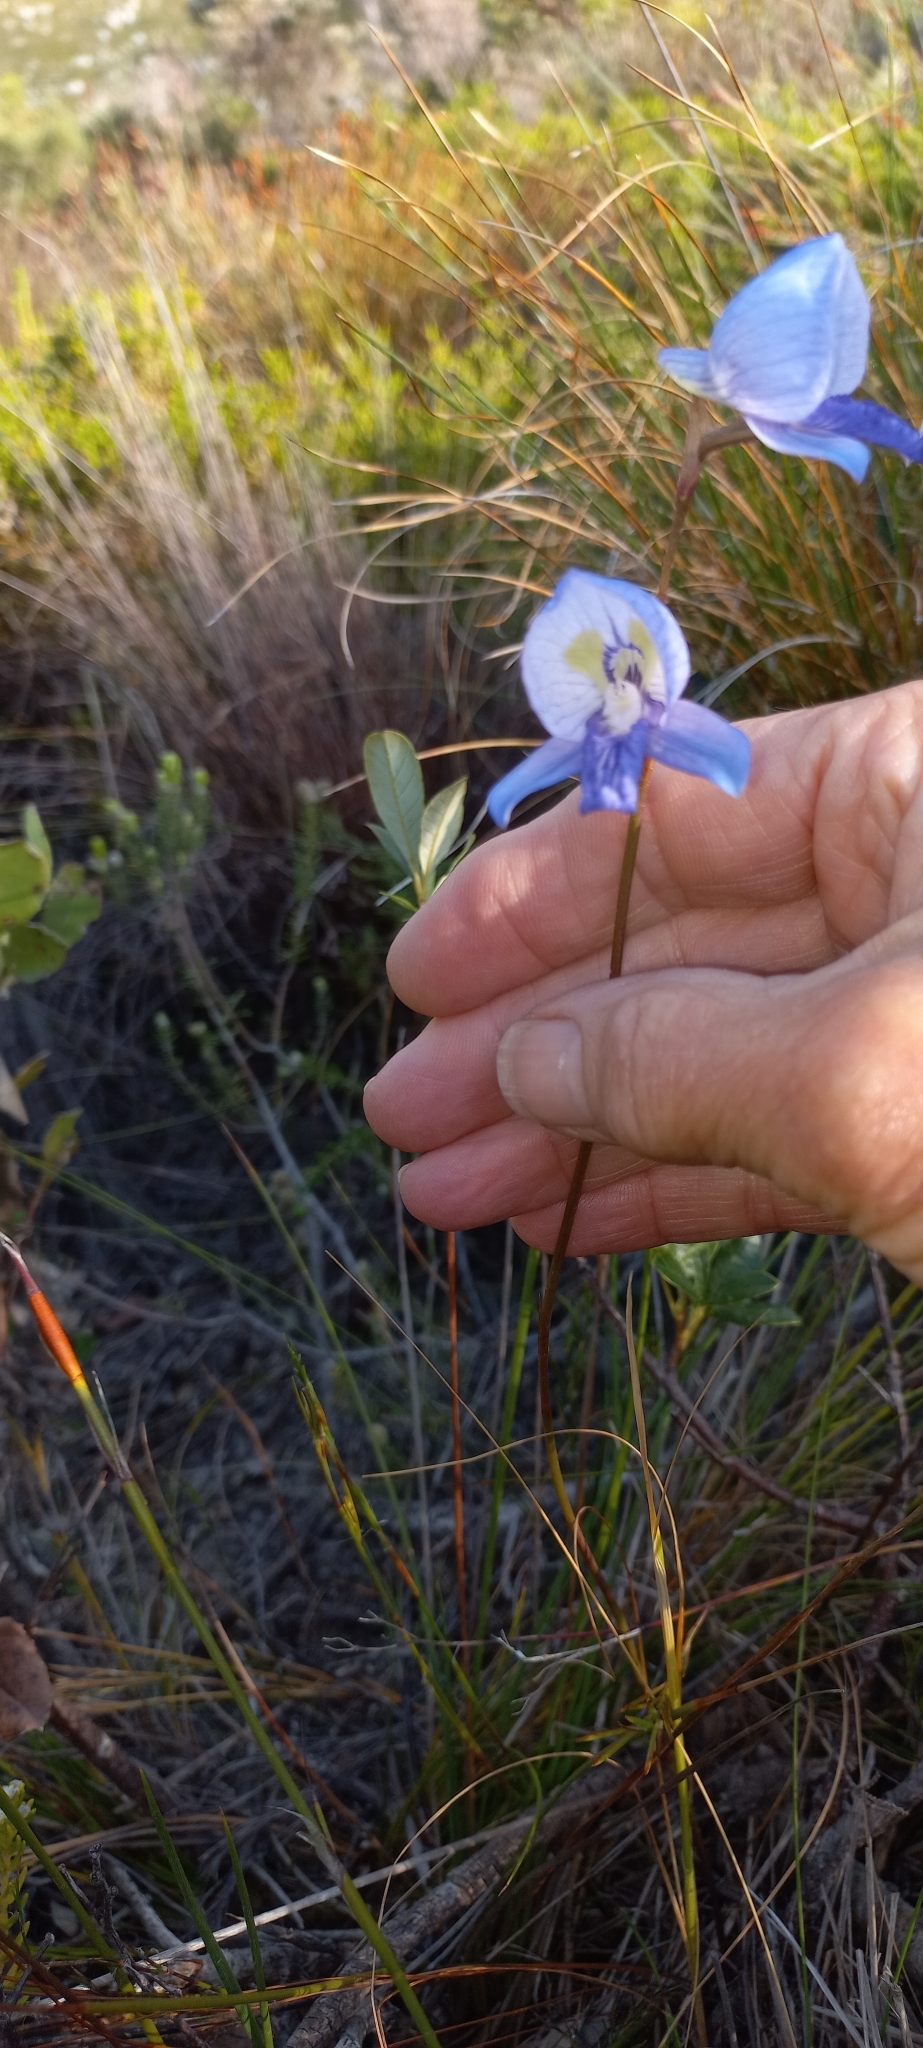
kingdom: Plantae
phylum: Tracheophyta
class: Liliopsida
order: Asparagales
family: Orchidaceae
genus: Disa
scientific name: Disa purpurascens
